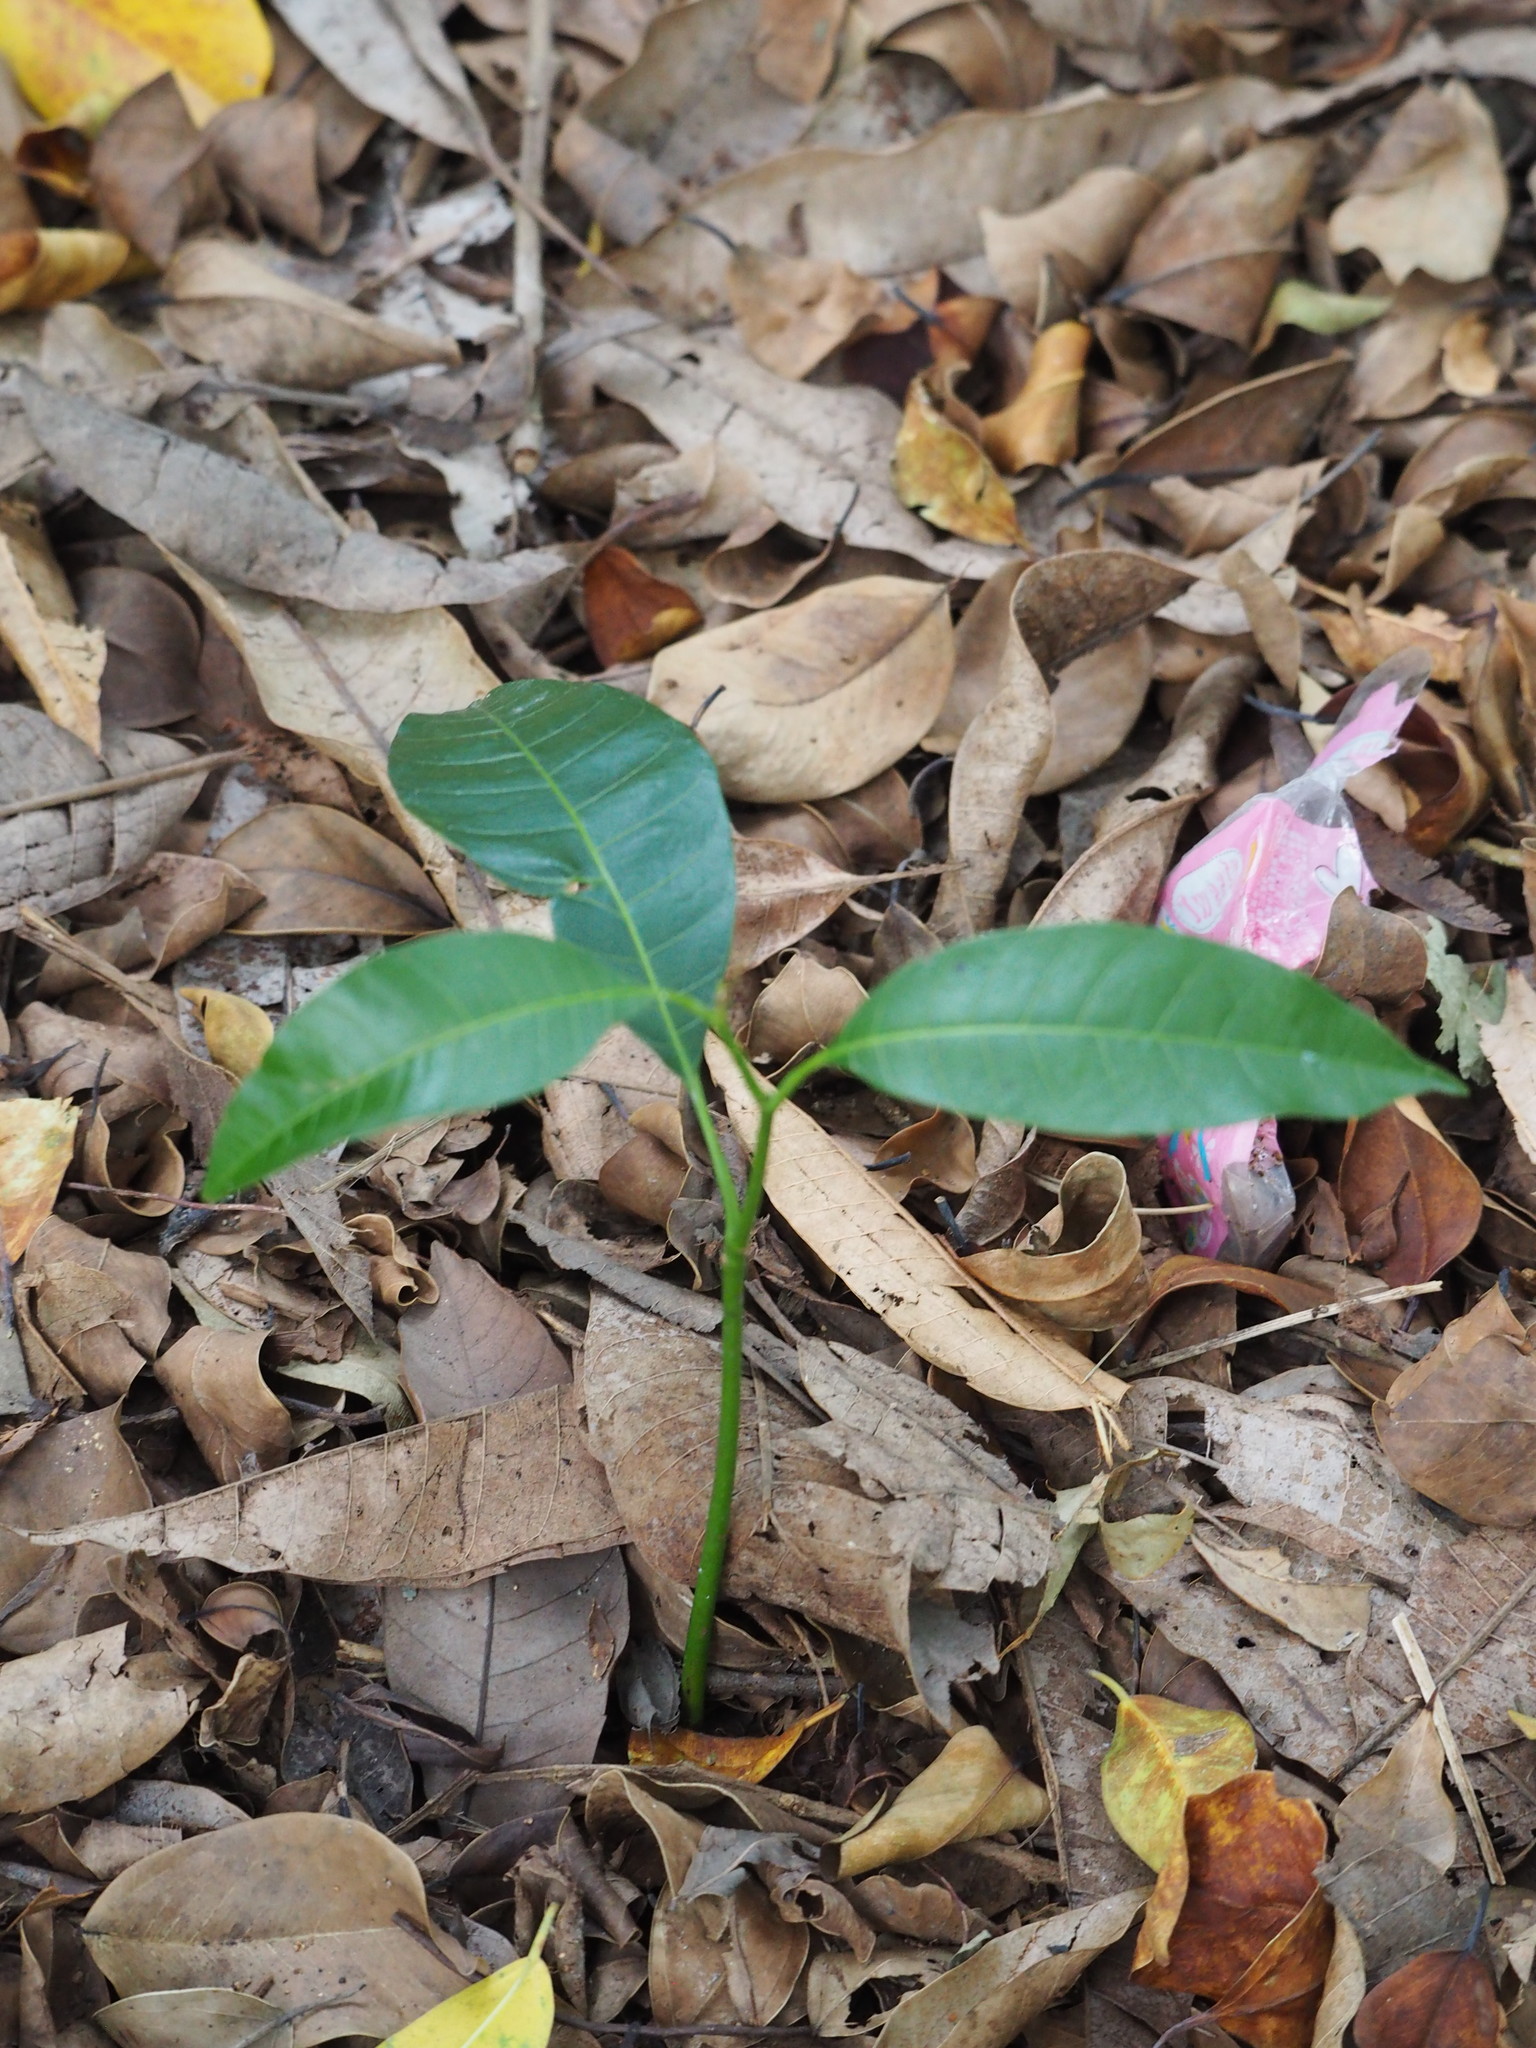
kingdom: Plantae
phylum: Tracheophyta
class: Magnoliopsida
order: Sapindales
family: Anacardiaceae
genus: Mangifera
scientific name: Mangifera indica
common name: Mango
